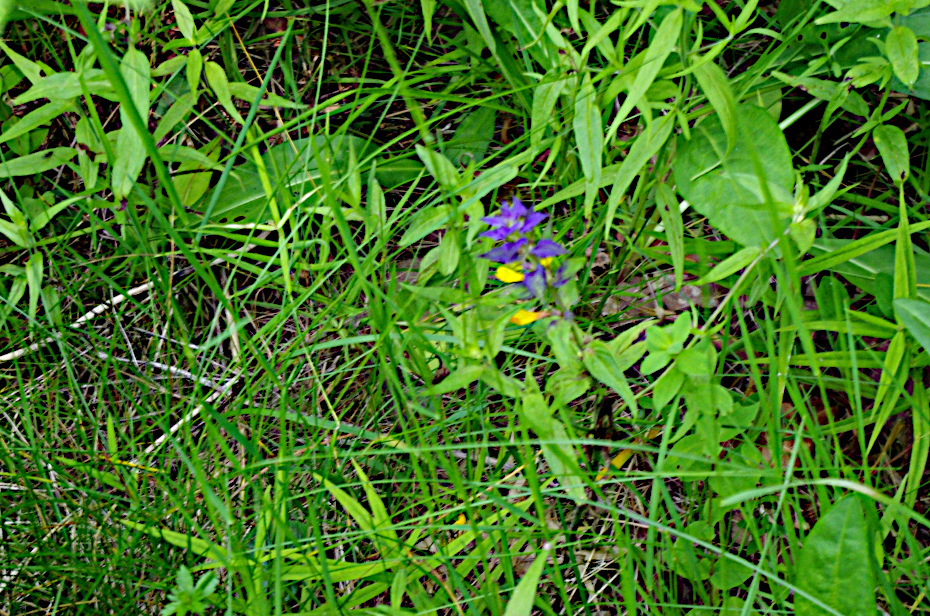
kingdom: Plantae
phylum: Tracheophyta
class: Magnoliopsida
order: Lamiales
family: Orobanchaceae
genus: Melampyrum
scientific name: Melampyrum nemorosum
